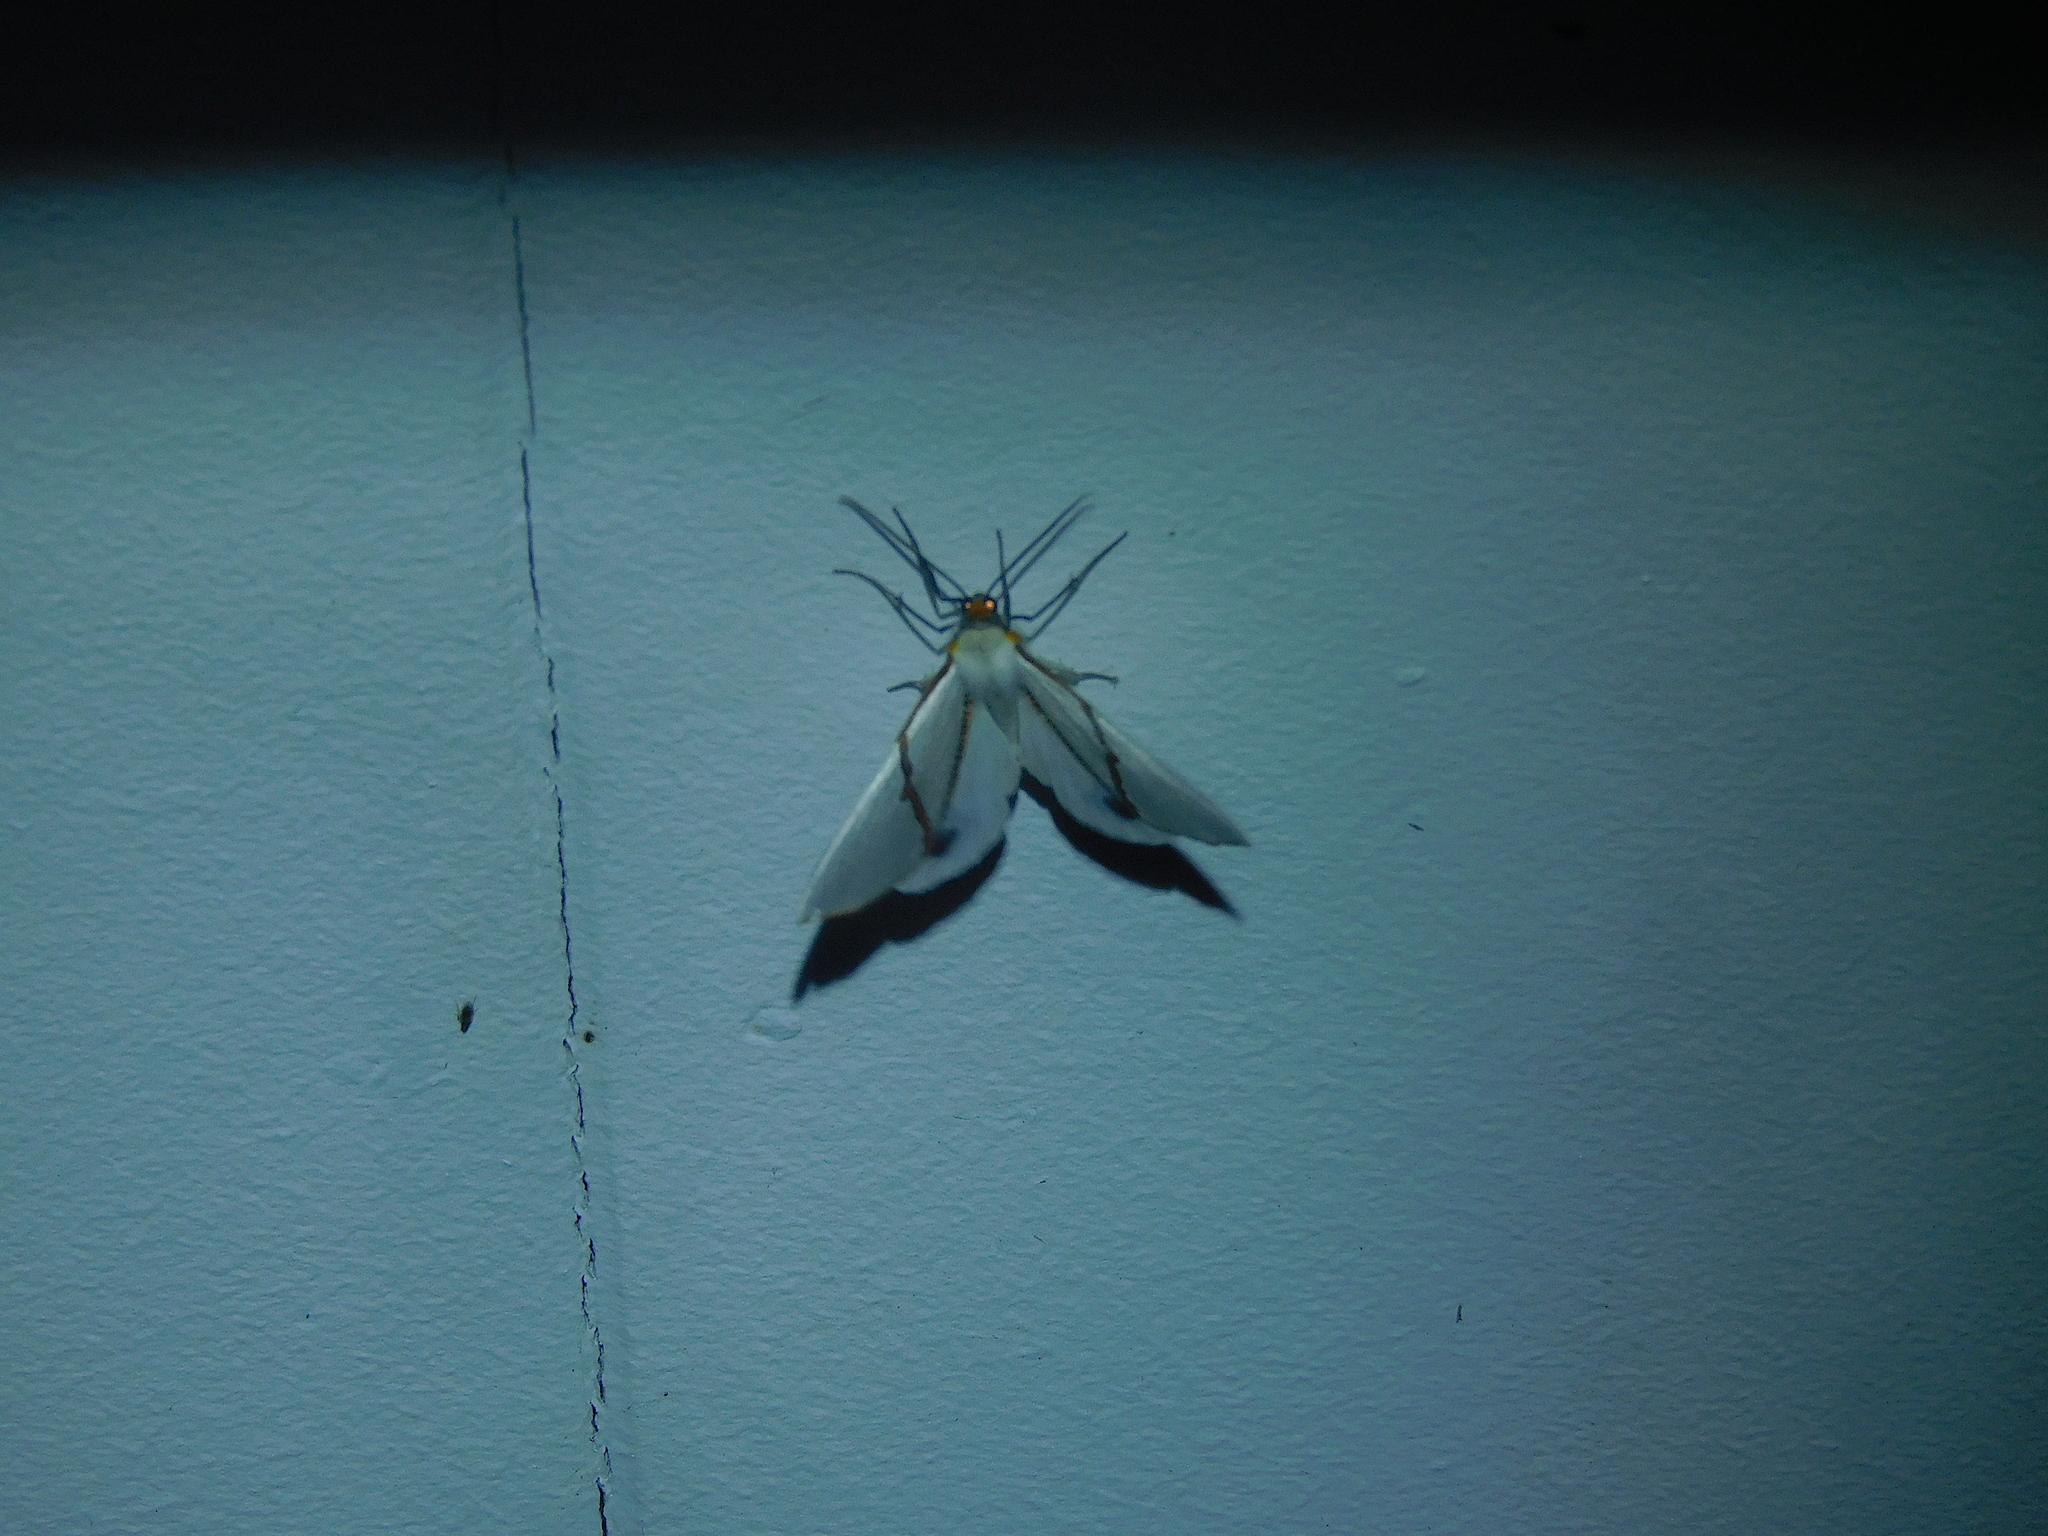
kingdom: Animalia
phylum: Arthropoda
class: Insecta
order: Lepidoptera
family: Geometridae
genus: Thalaina
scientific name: Thalaina selenaea
